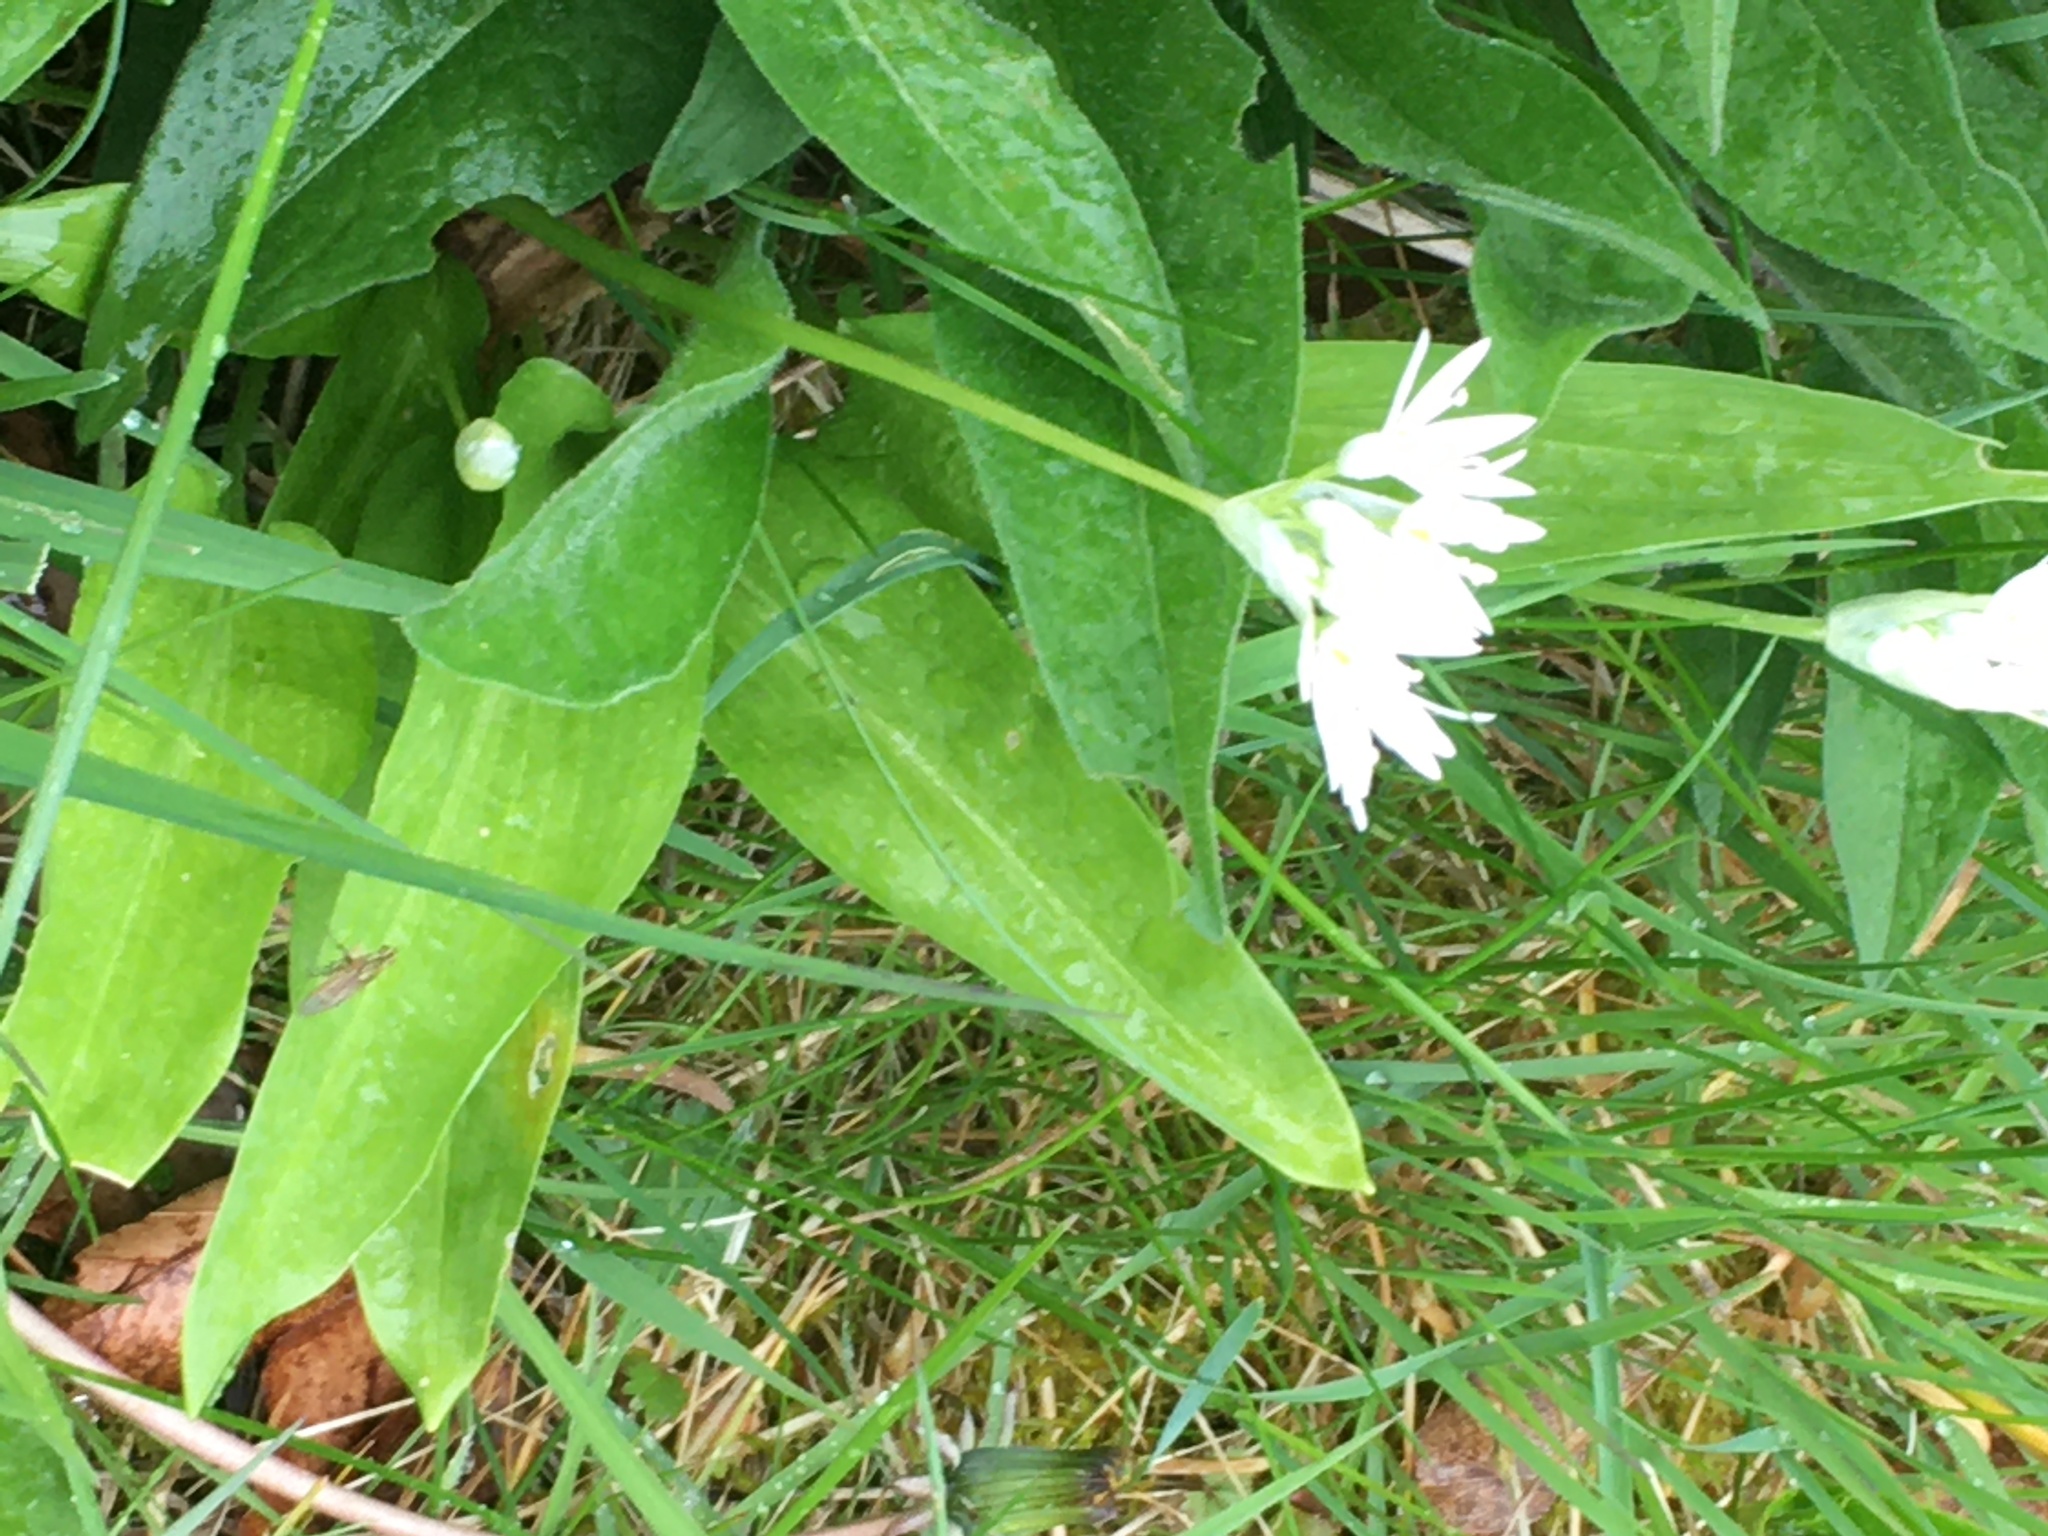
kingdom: Plantae
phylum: Tracheophyta
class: Liliopsida
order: Asparagales
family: Amaryllidaceae
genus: Allium
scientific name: Allium ursinum
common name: Ramsons
